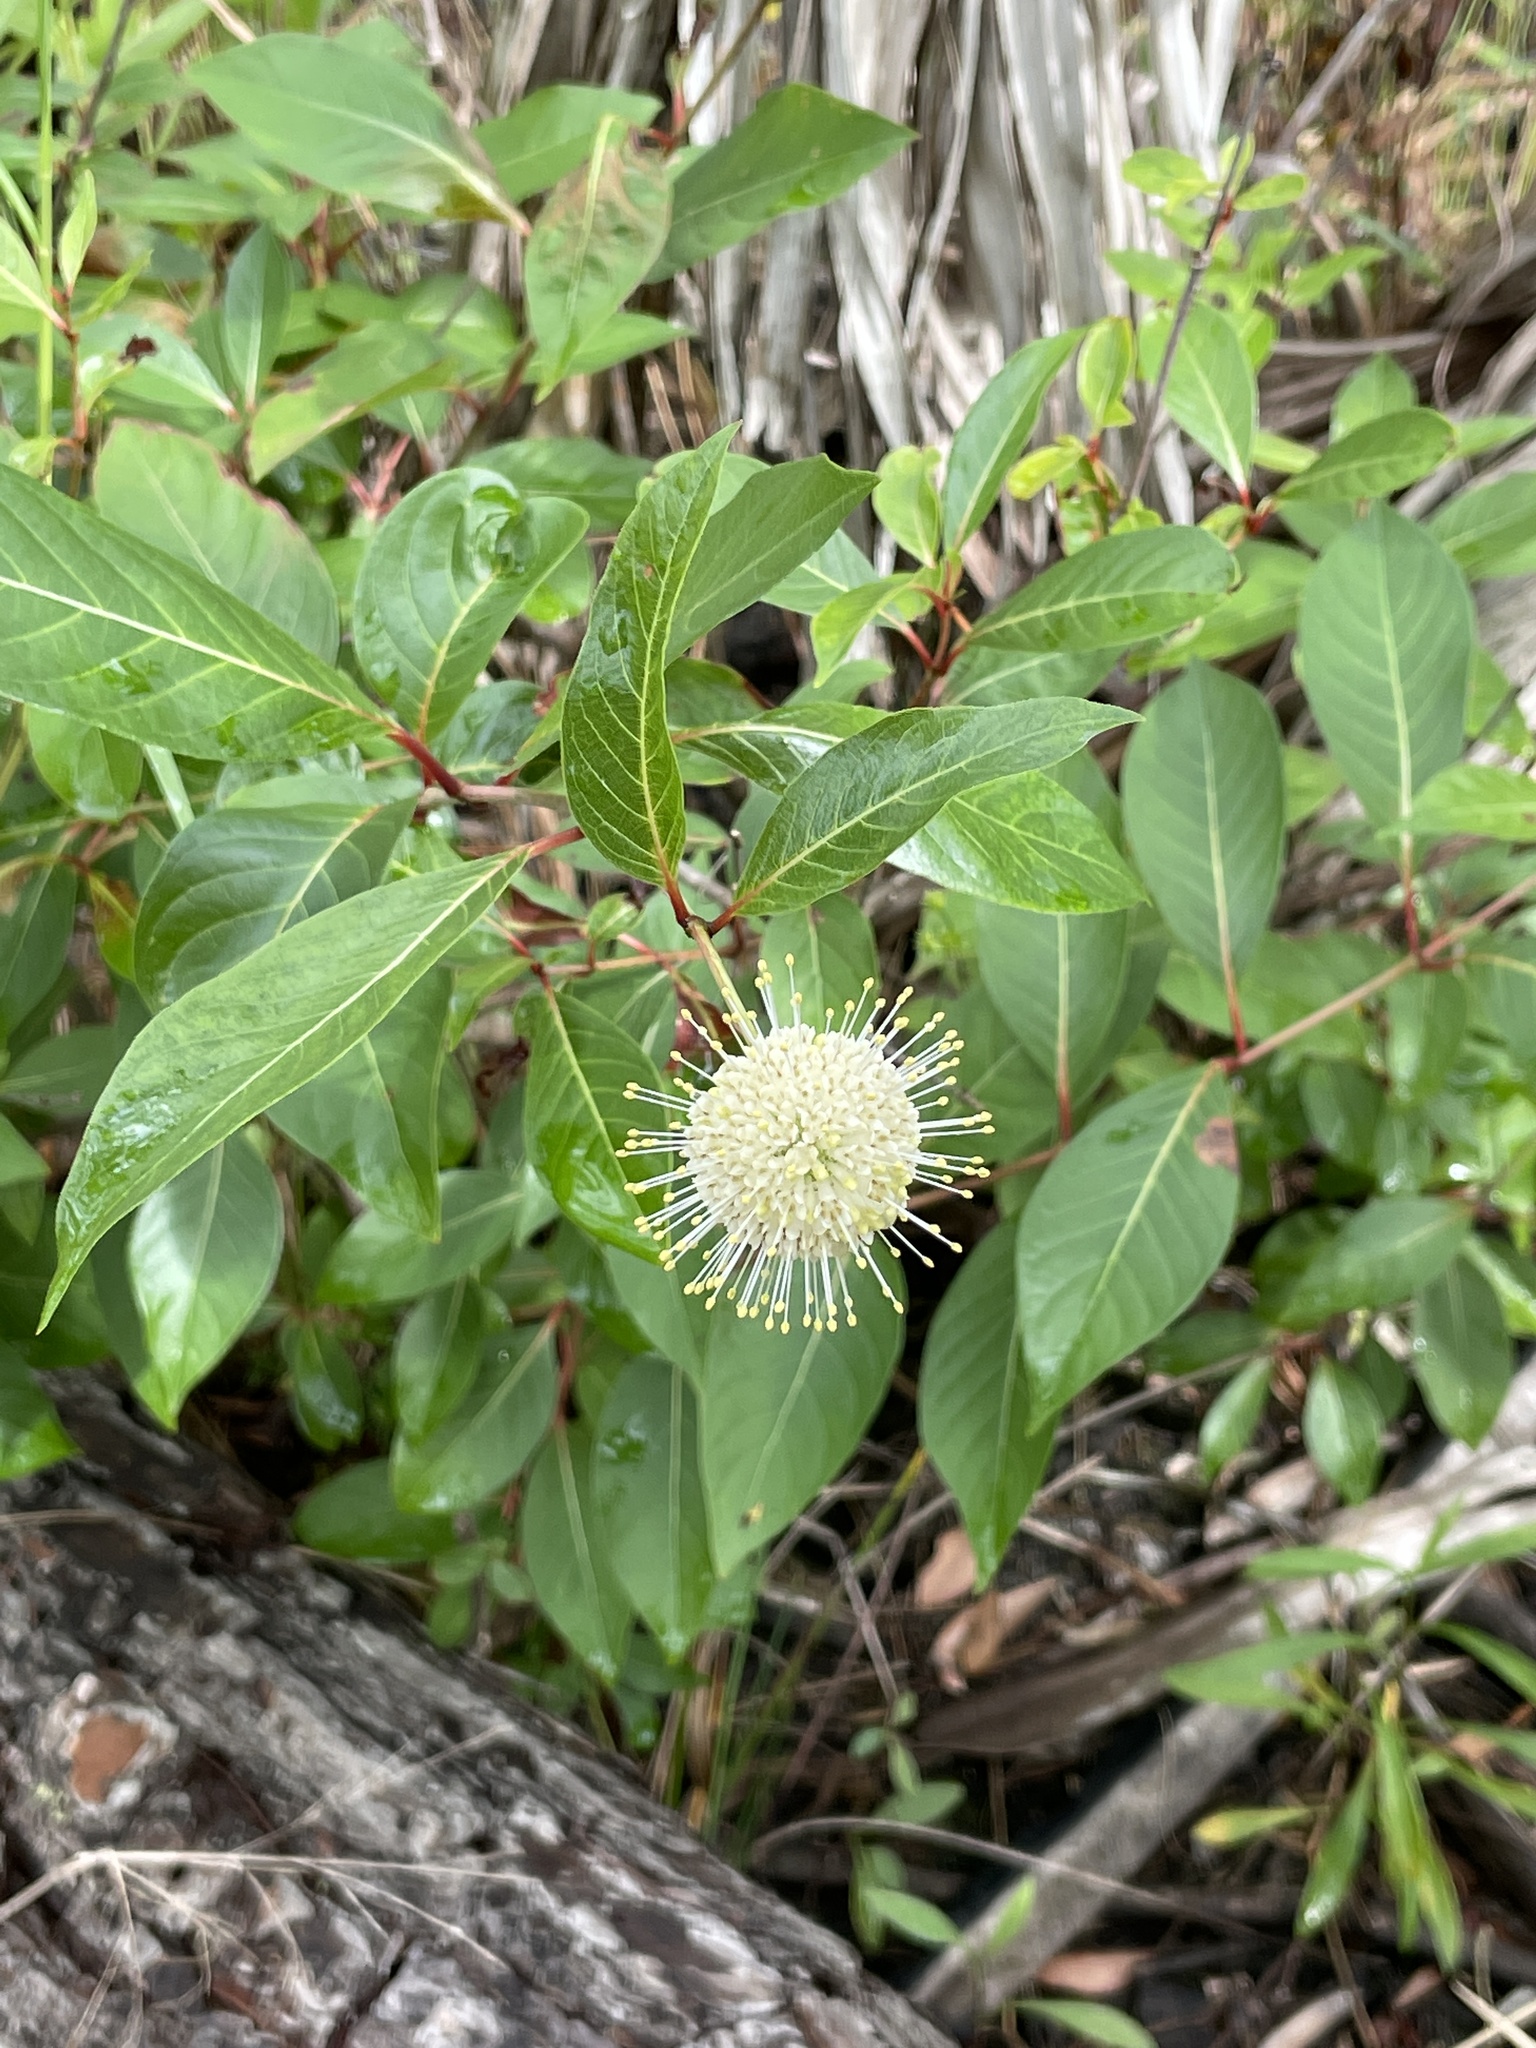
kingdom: Plantae
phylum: Tracheophyta
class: Magnoliopsida
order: Gentianales
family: Rubiaceae
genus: Cephalanthus
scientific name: Cephalanthus occidentalis
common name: Button-willow
